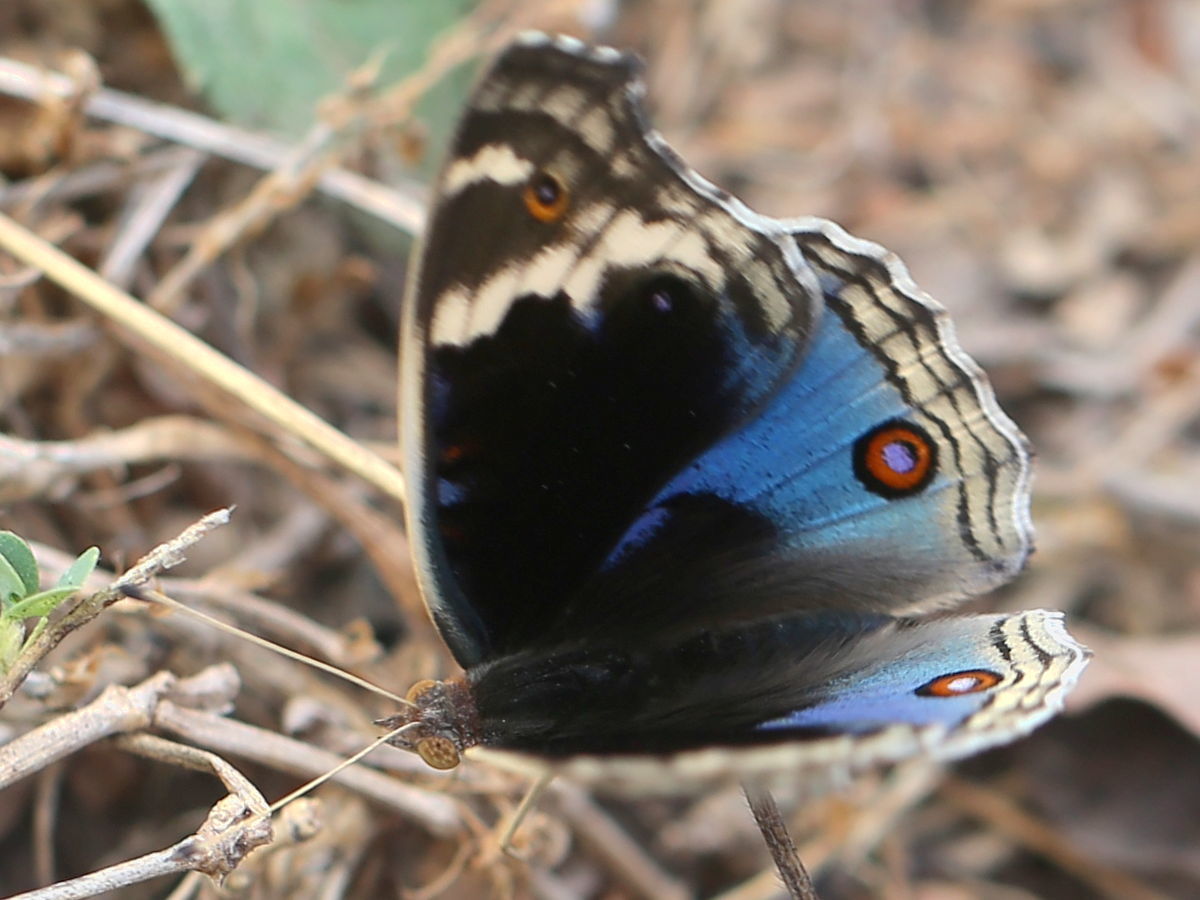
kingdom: Animalia
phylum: Arthropoda
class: Insecta
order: Lepidoptera
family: Nymphalidae
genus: Junonia
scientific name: Junonia orithya
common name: Blue pansy
